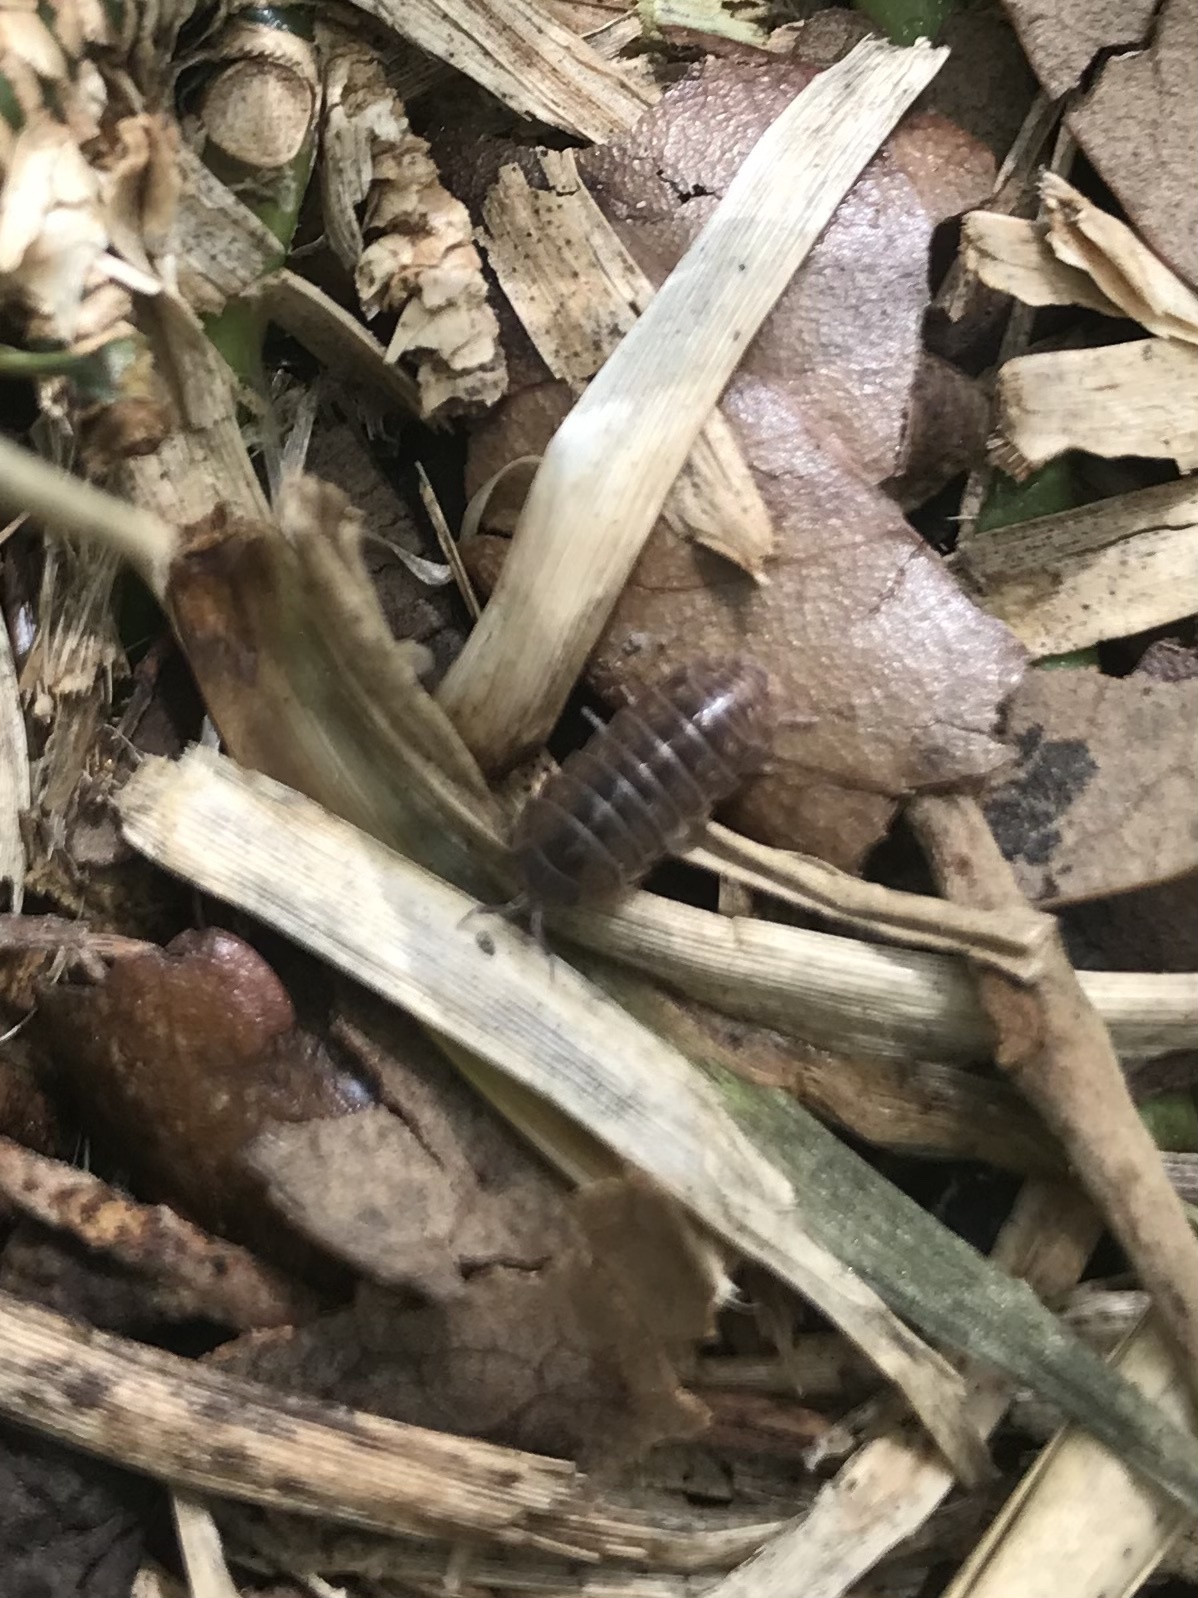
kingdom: Animalia
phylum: Arthropoda
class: Malacostraca
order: Isopoda
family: Armadillidiidae
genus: Armadillidium
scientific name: Armadillidium vulgare
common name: Common pill woodlouse
